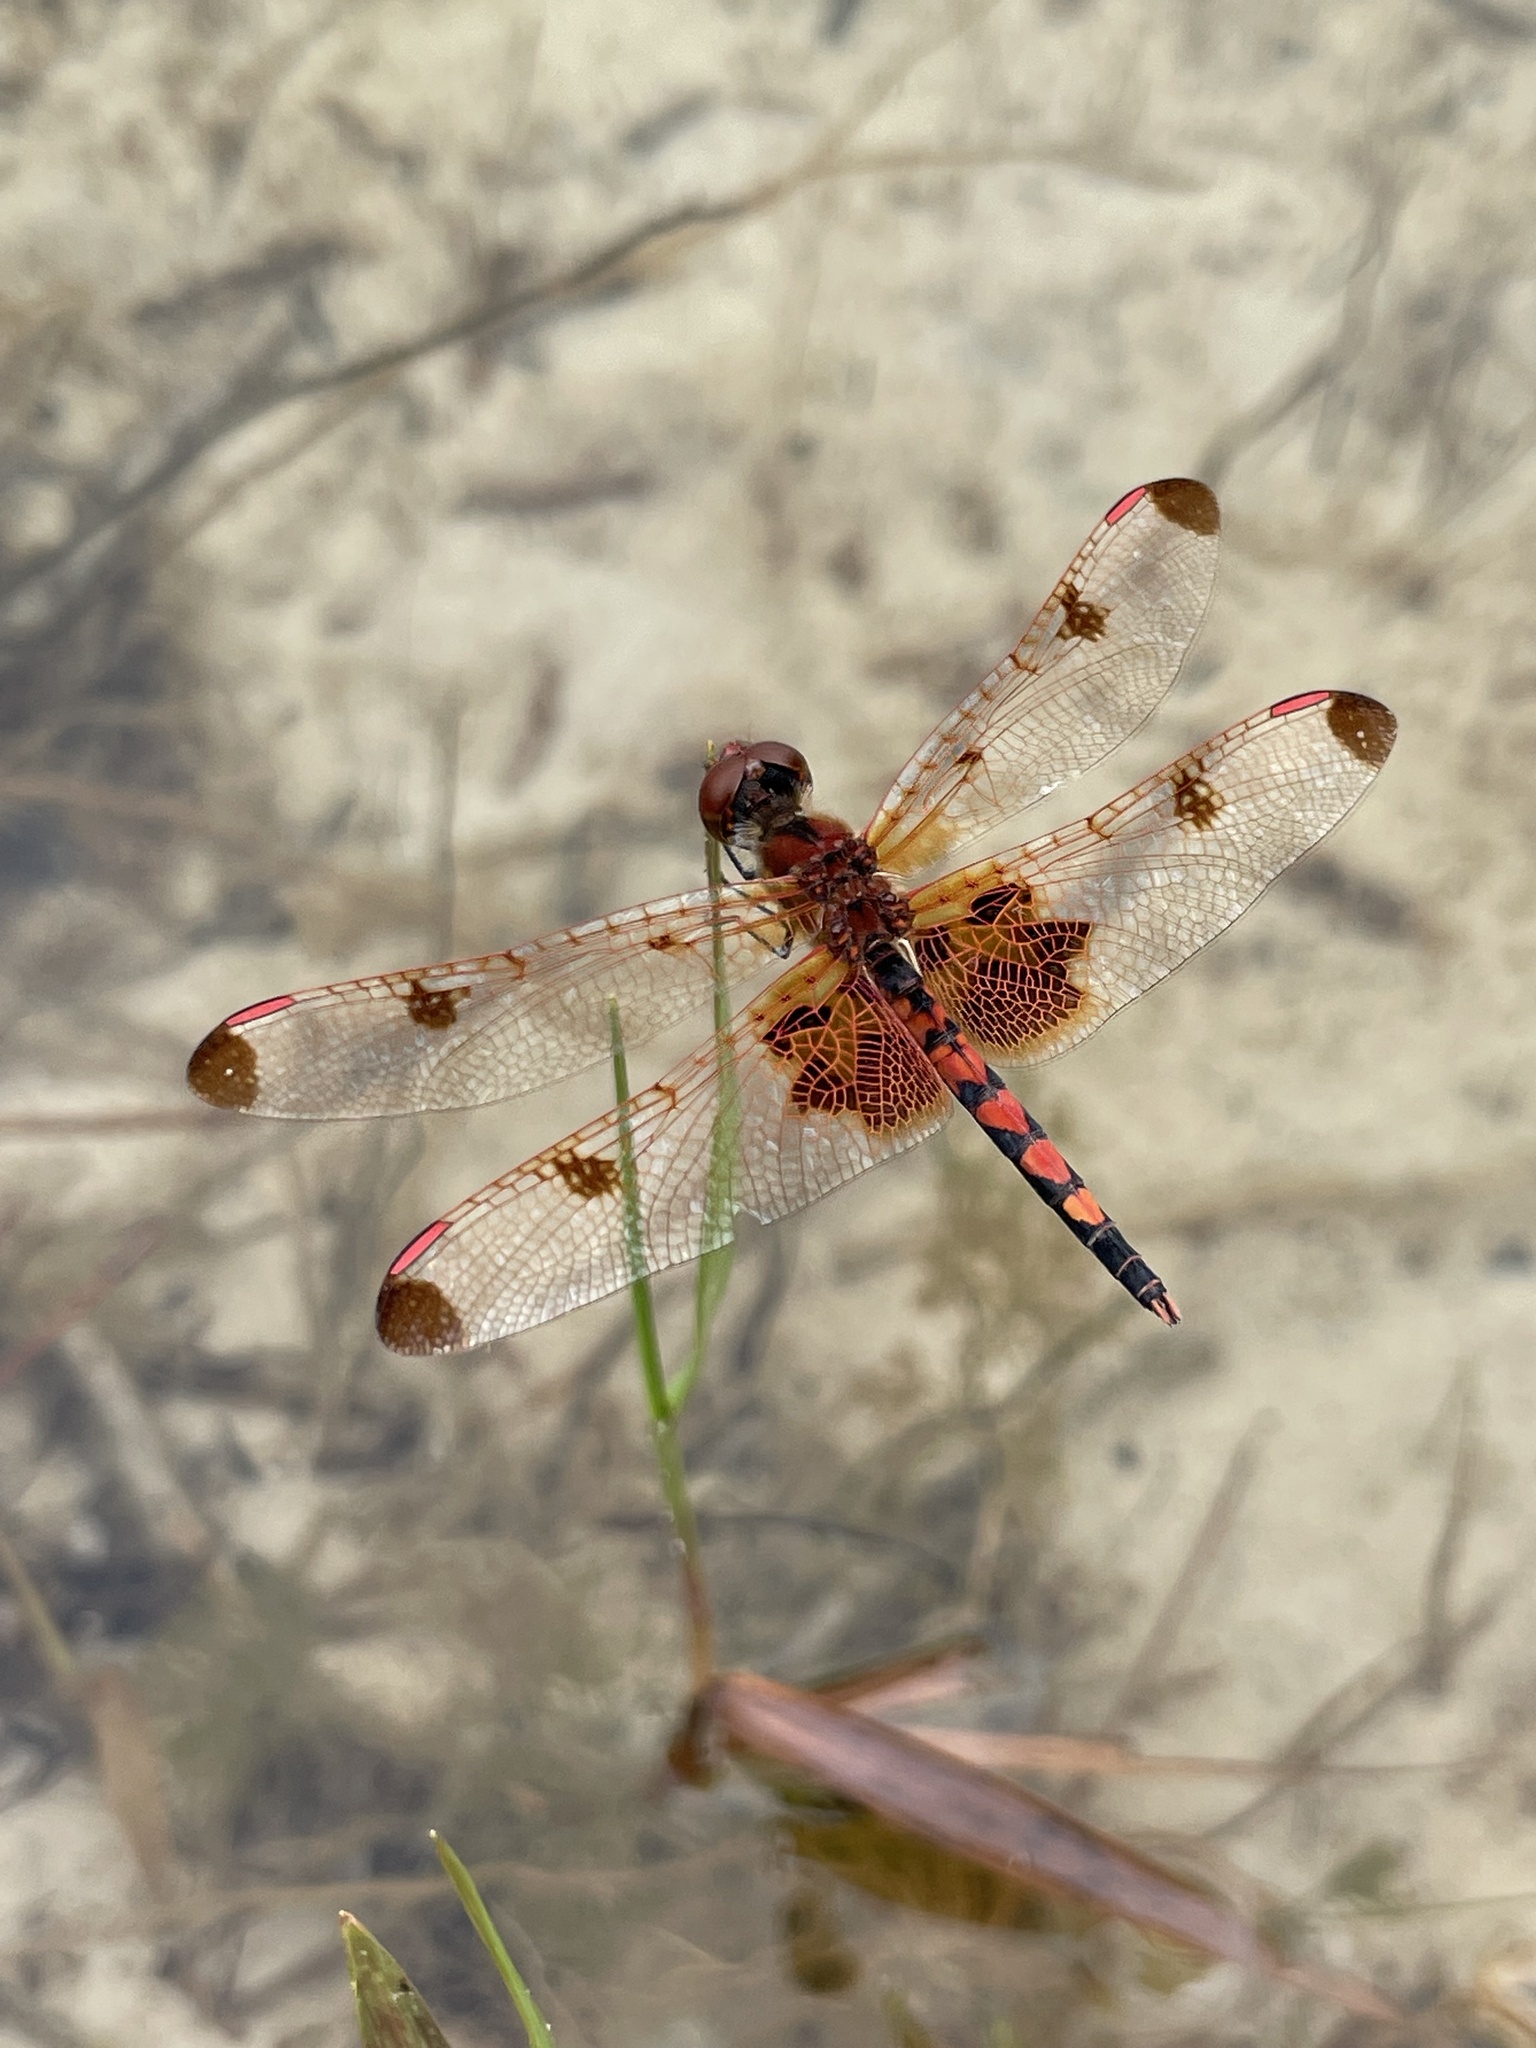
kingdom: Animalia
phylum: Arthropoda
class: Insecta
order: Odonata
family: Libellulidae
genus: Celithemis
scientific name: Celithemis elisa
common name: Calico pennant
